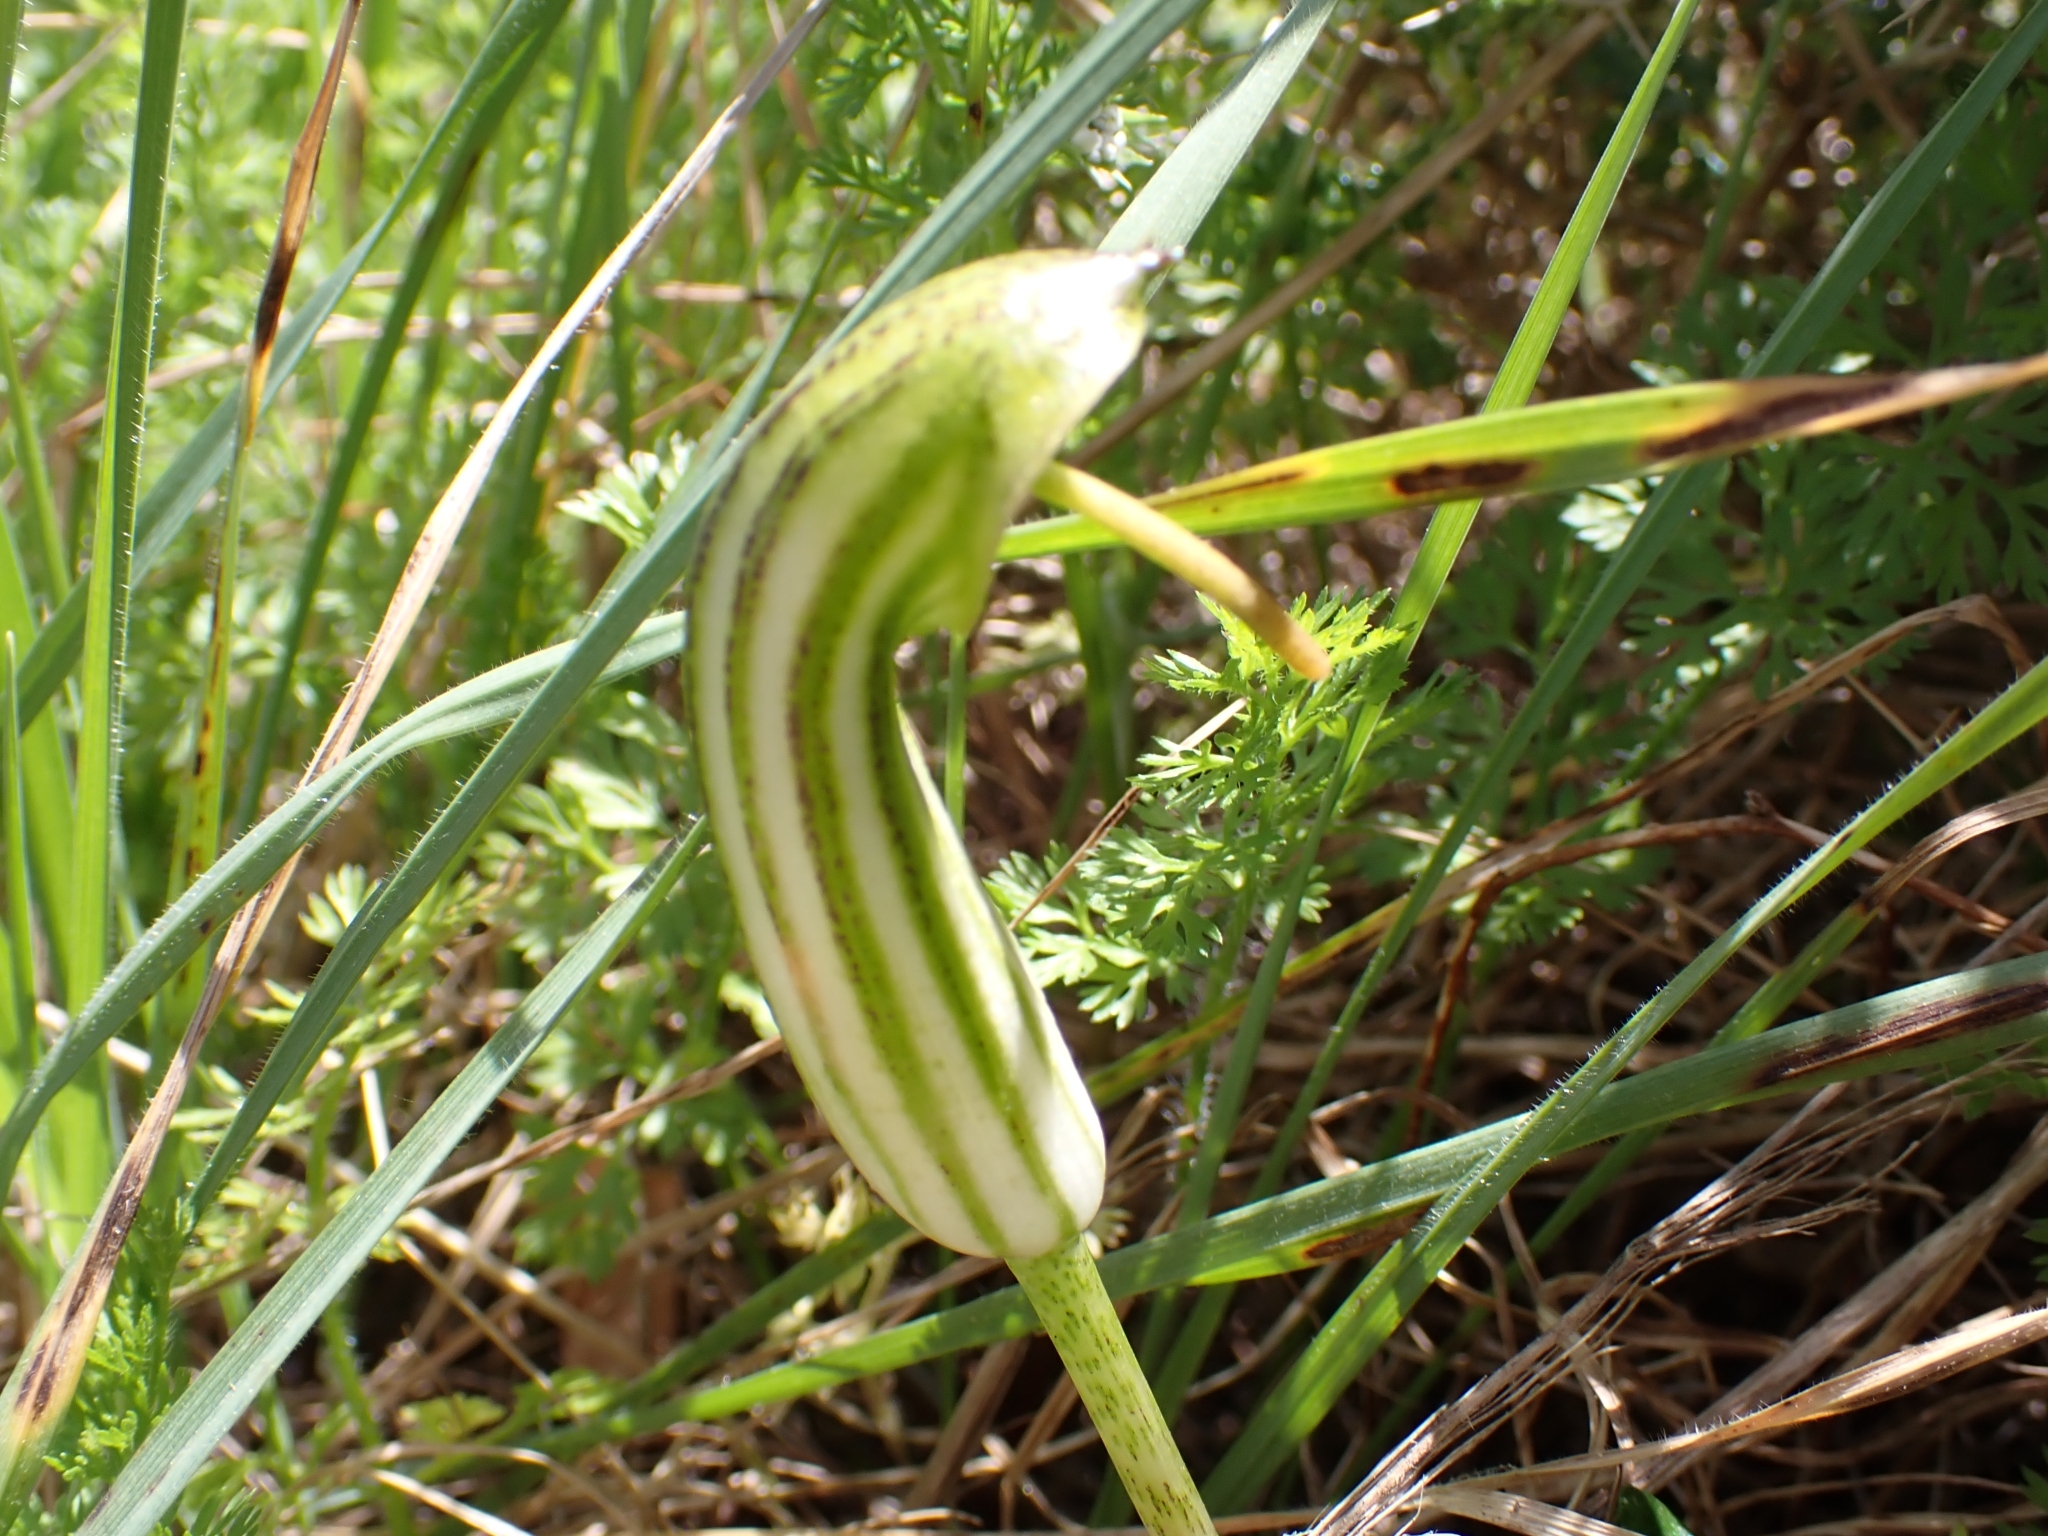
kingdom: Plantae
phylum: Tracheophyta
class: Liliopsida
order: Alismatales
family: Araceae
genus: Arisarum
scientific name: Arisarum vulgare
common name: Common arisarum
